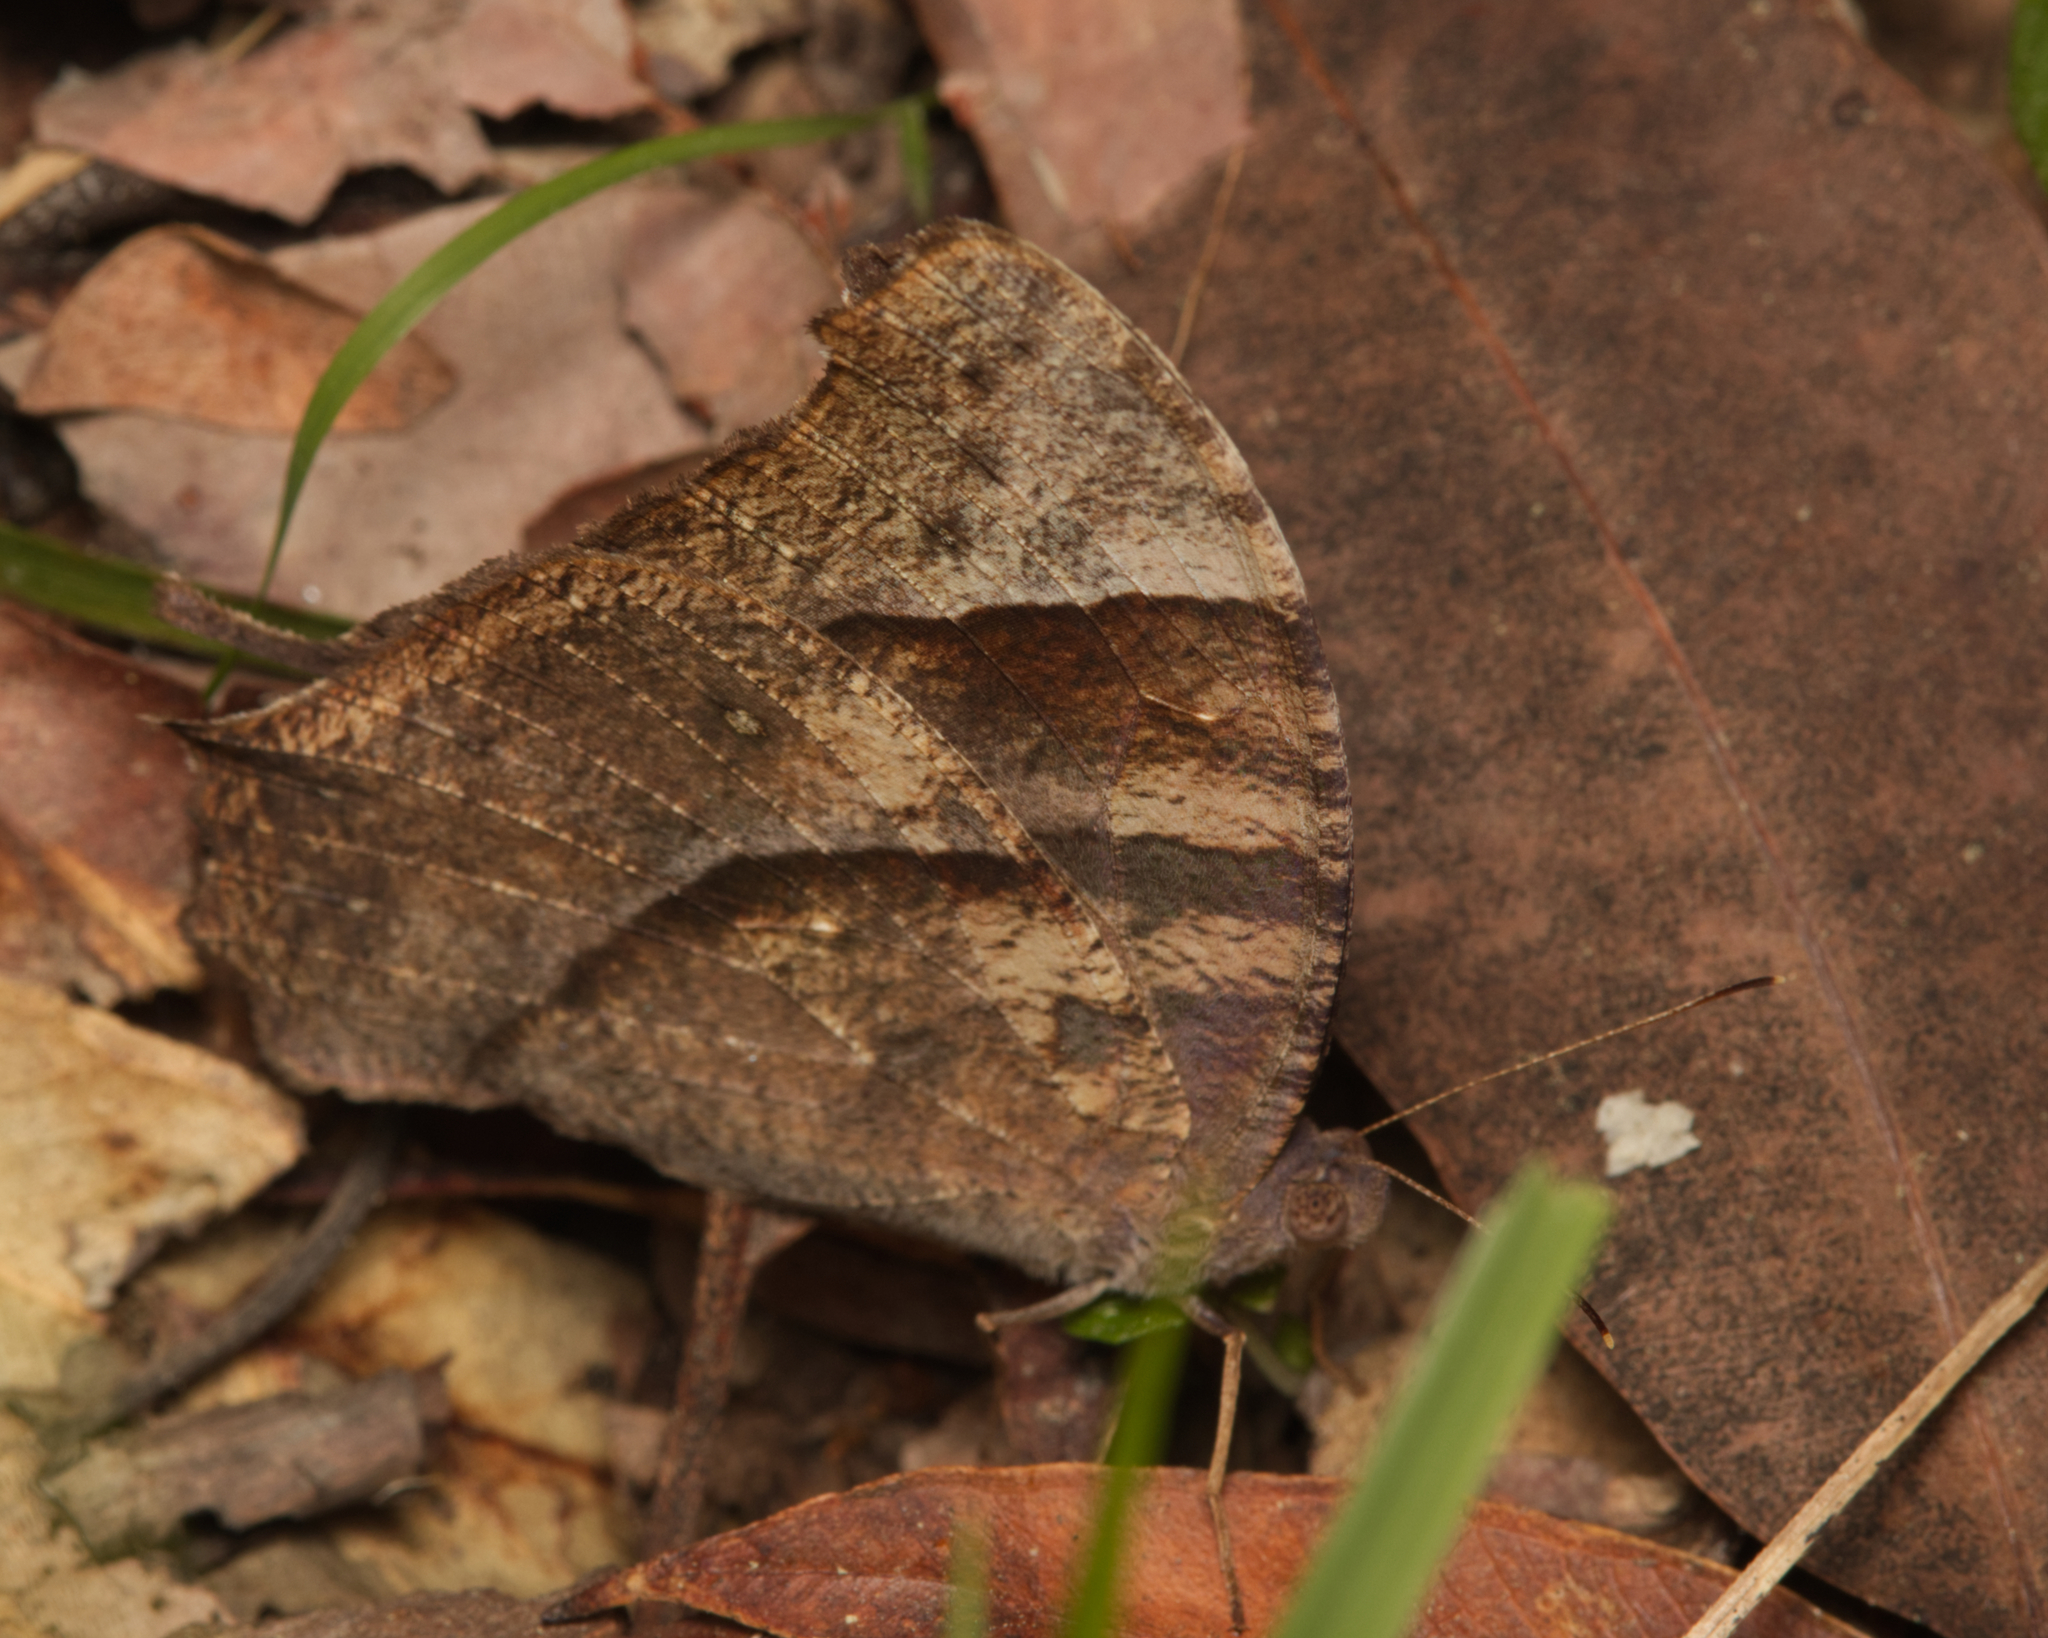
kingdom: Animalia
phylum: Arthropoda
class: Insecta
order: Lepidoptera
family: Nymphalidae
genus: Melanitis
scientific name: Melanitis leda
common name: Twilight brown
